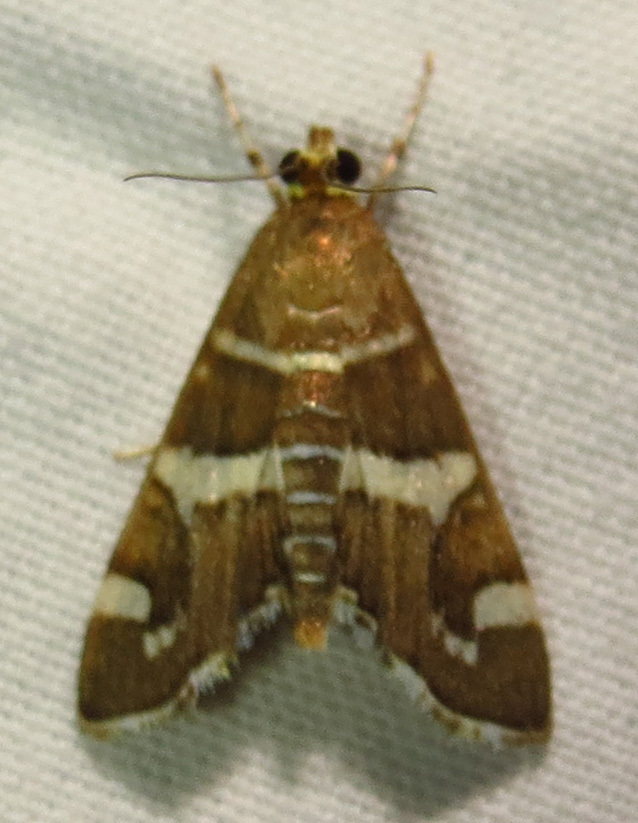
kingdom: Animalia
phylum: Arthropoda
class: Insecta
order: Lepidoptera
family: Crambidae
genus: Spoladea
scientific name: Spoladea recurvalis
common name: Beet webworm moth
